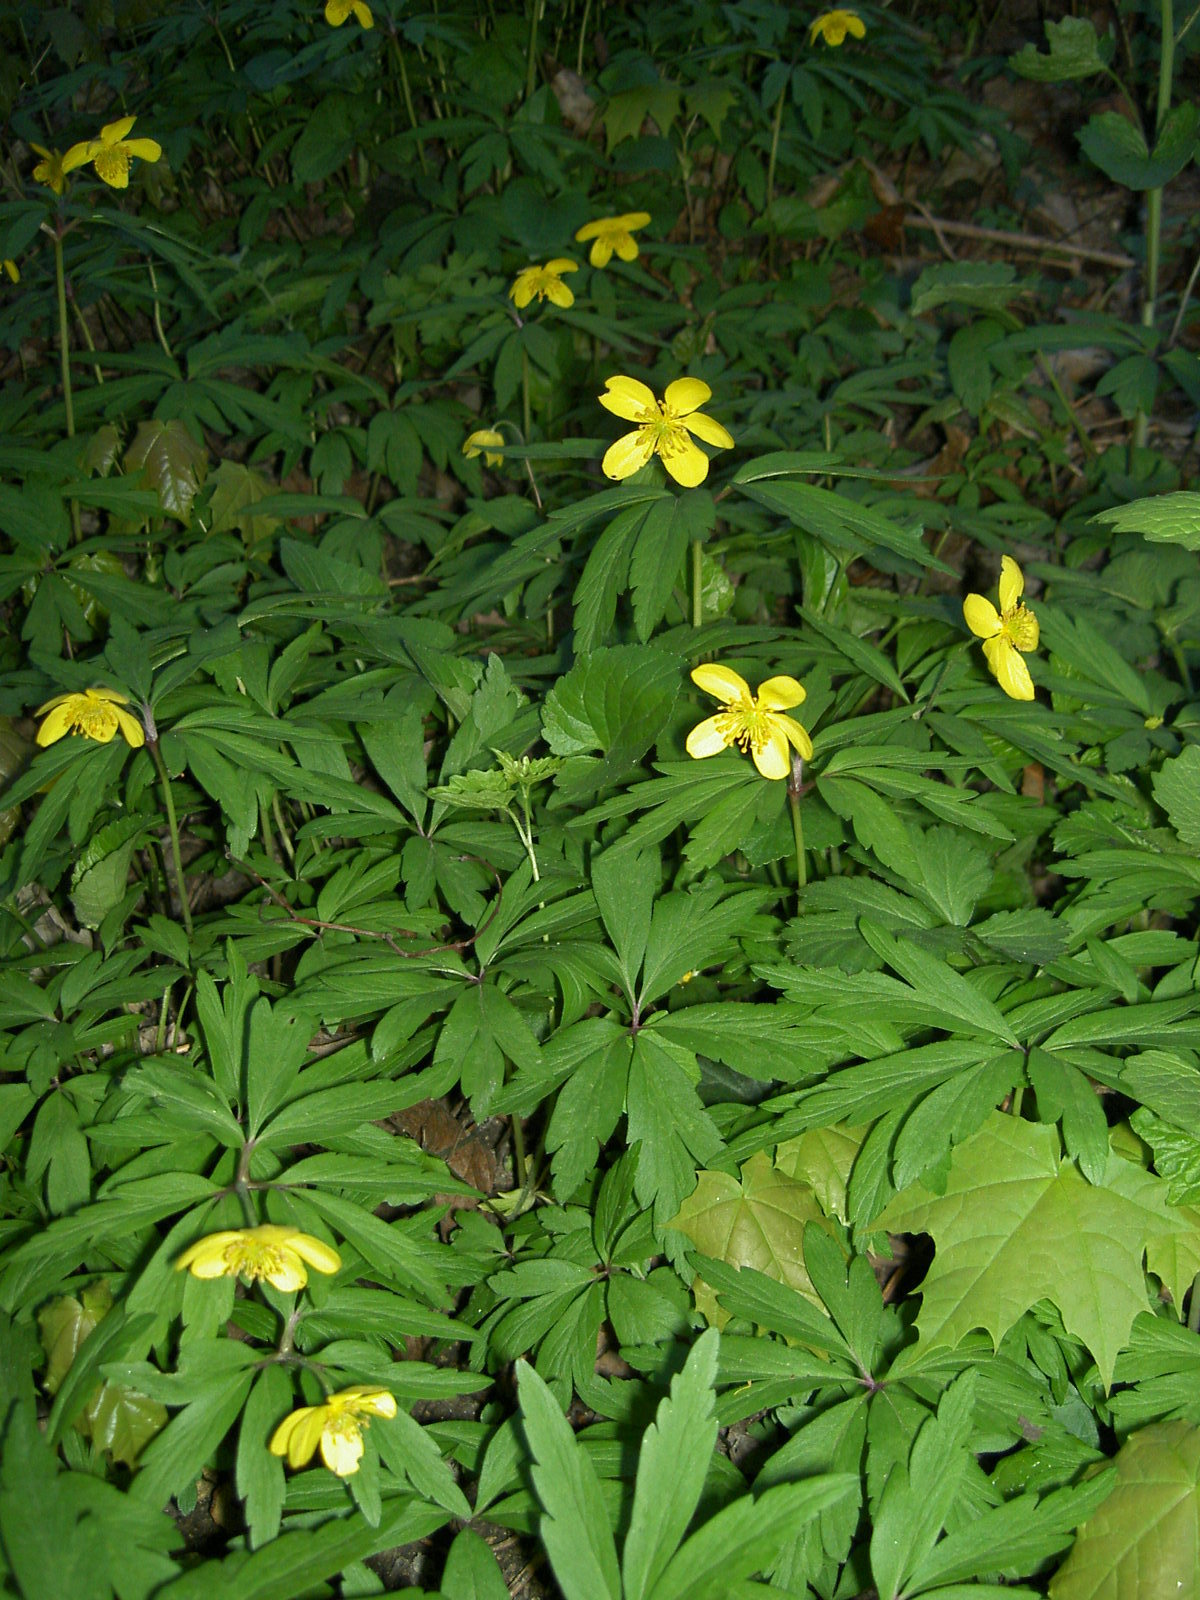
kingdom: Plantae
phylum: Tracheophyta
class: Magnoliopsida
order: Ranunculales
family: Ranunculaceae
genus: Anemone
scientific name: Anemone ranunculoides
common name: Yellow anemone
